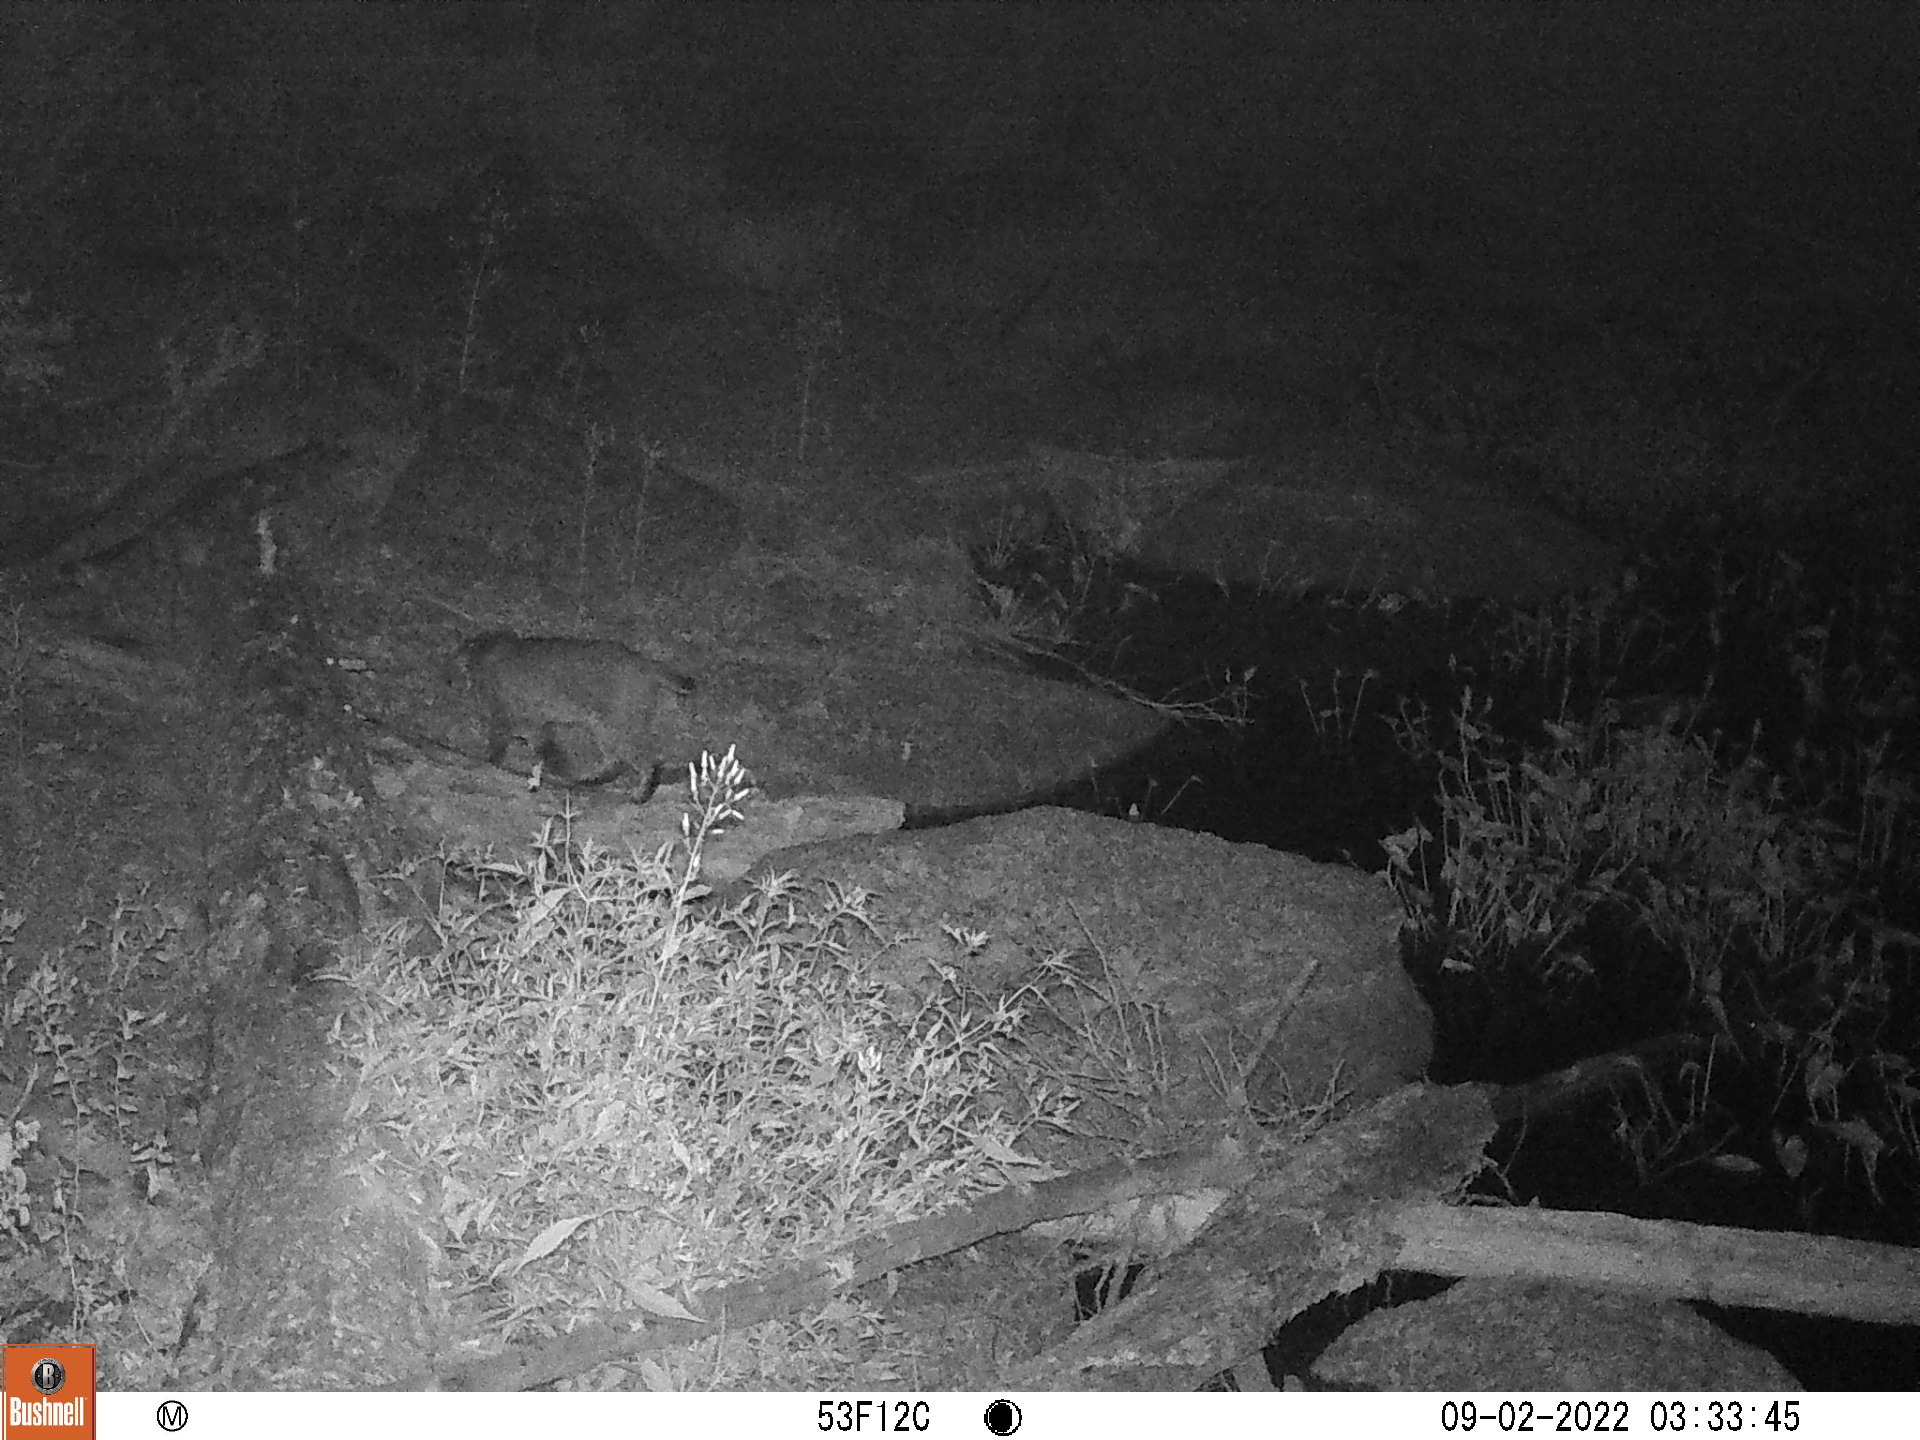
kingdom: Animalia
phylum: Chordata
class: Mammalia
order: Carnivora
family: Felidae
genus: Lynx
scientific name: Lynx rufus
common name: Bobcat
